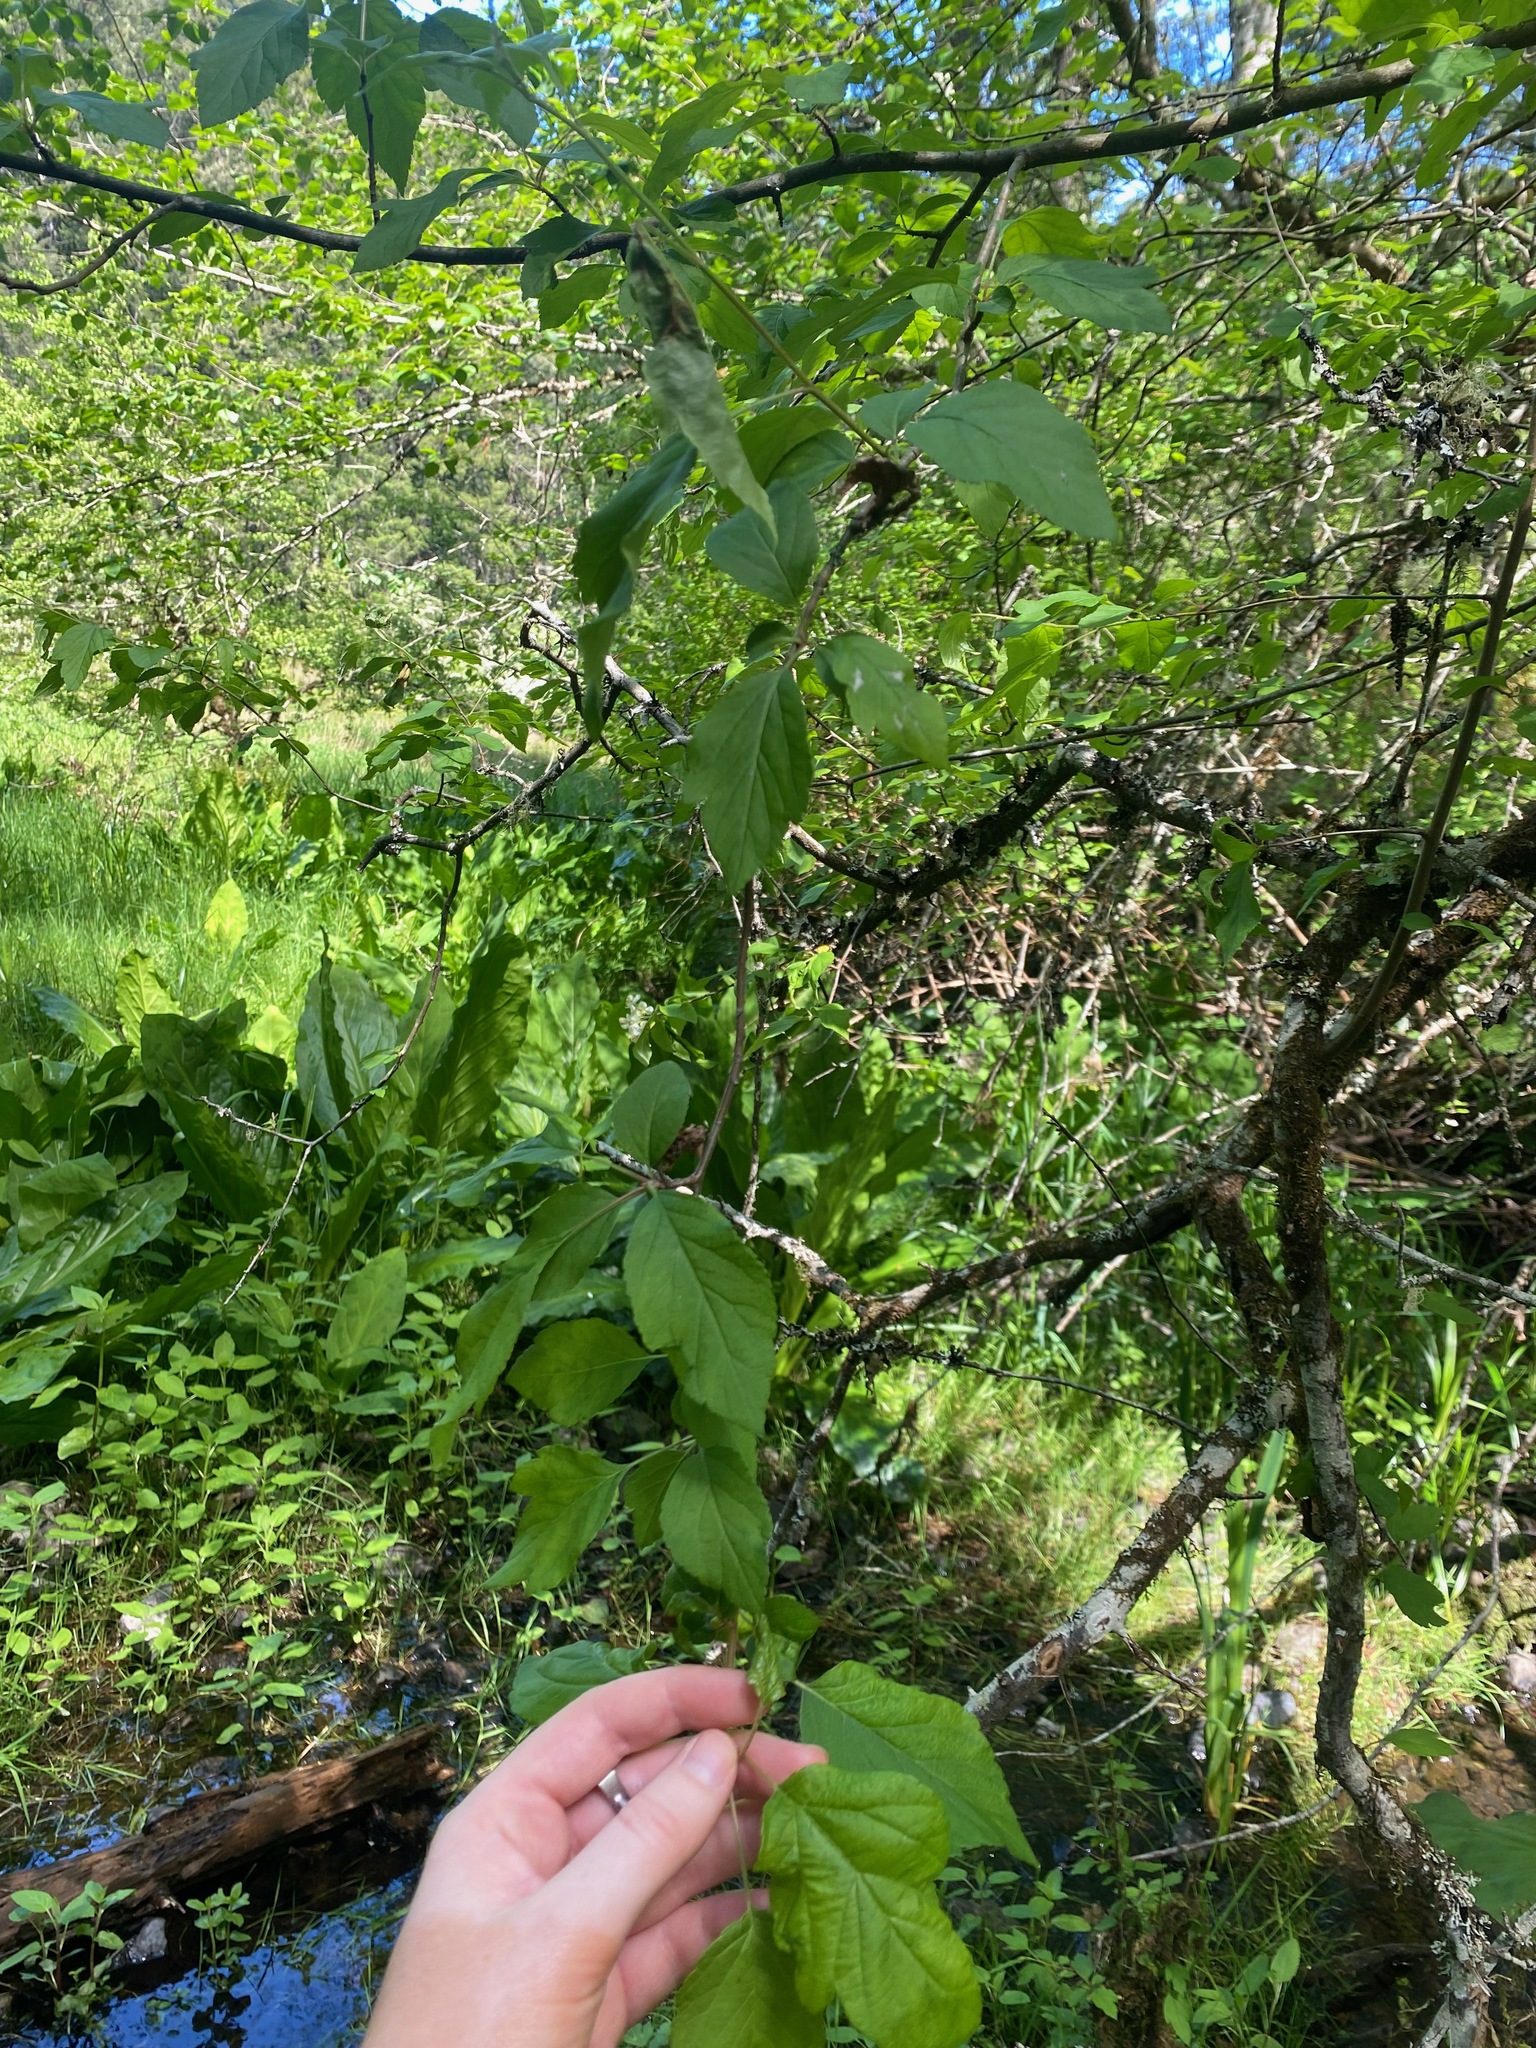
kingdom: Plantae
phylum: Tracheophyta
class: Magnoliopsida
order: Rosales
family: Rosaceae
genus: Malus
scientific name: Malus fusca
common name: Oregon crab apple
